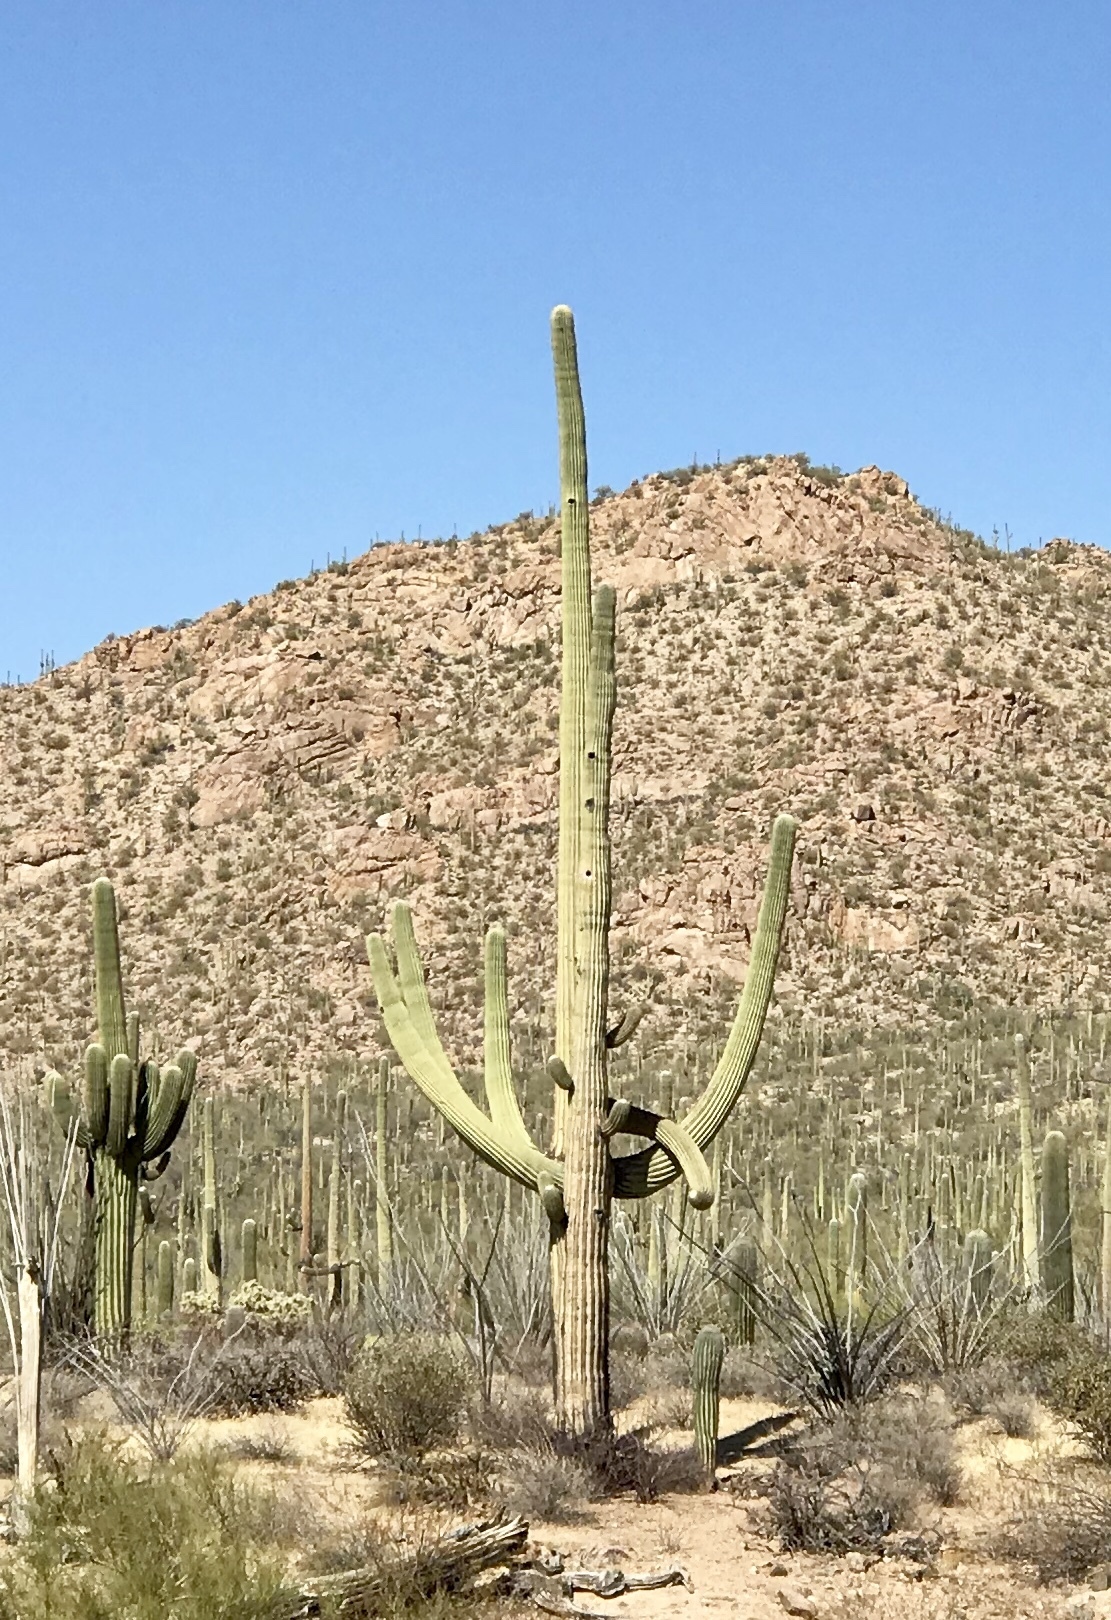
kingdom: Plantae
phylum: Tracheophyta
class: Magnoliopsida
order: Caryophyllales
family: Cactaceae
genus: Carnegiea
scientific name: Carnegiea gigantea
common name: Saguaro
